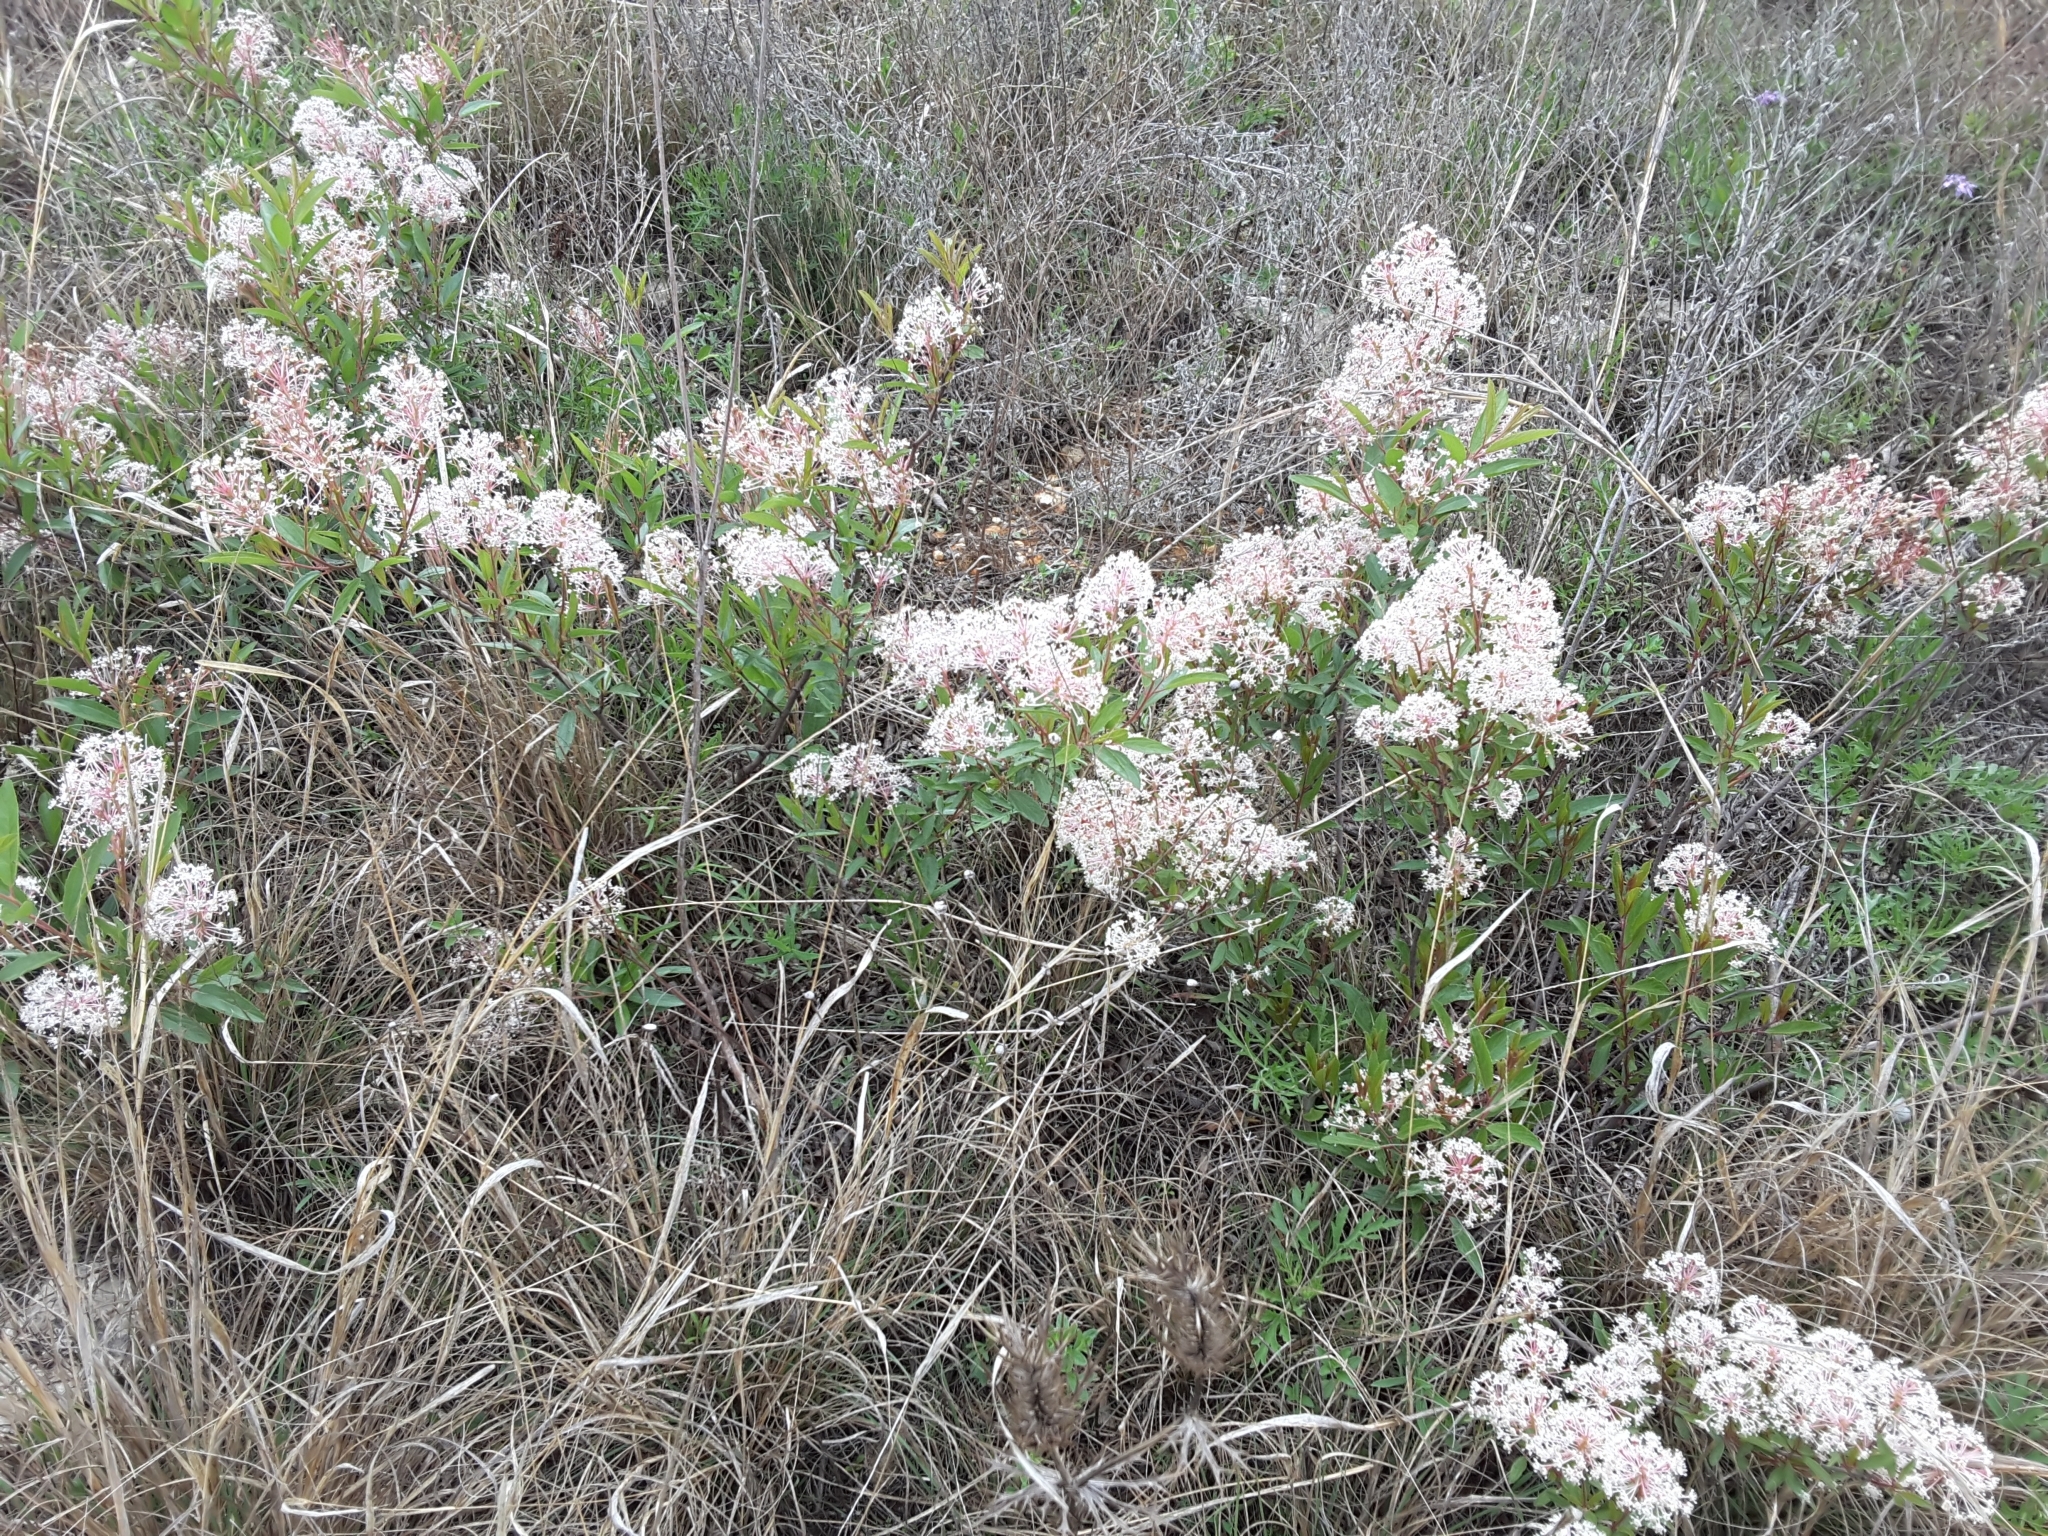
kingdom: Plantae
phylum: Tracheophyta
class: Magnoliopsida
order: Rosales
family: Rhamnaceae
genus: Ceanothus
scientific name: Ceanothus herbaceus
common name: Inland ceanothus
